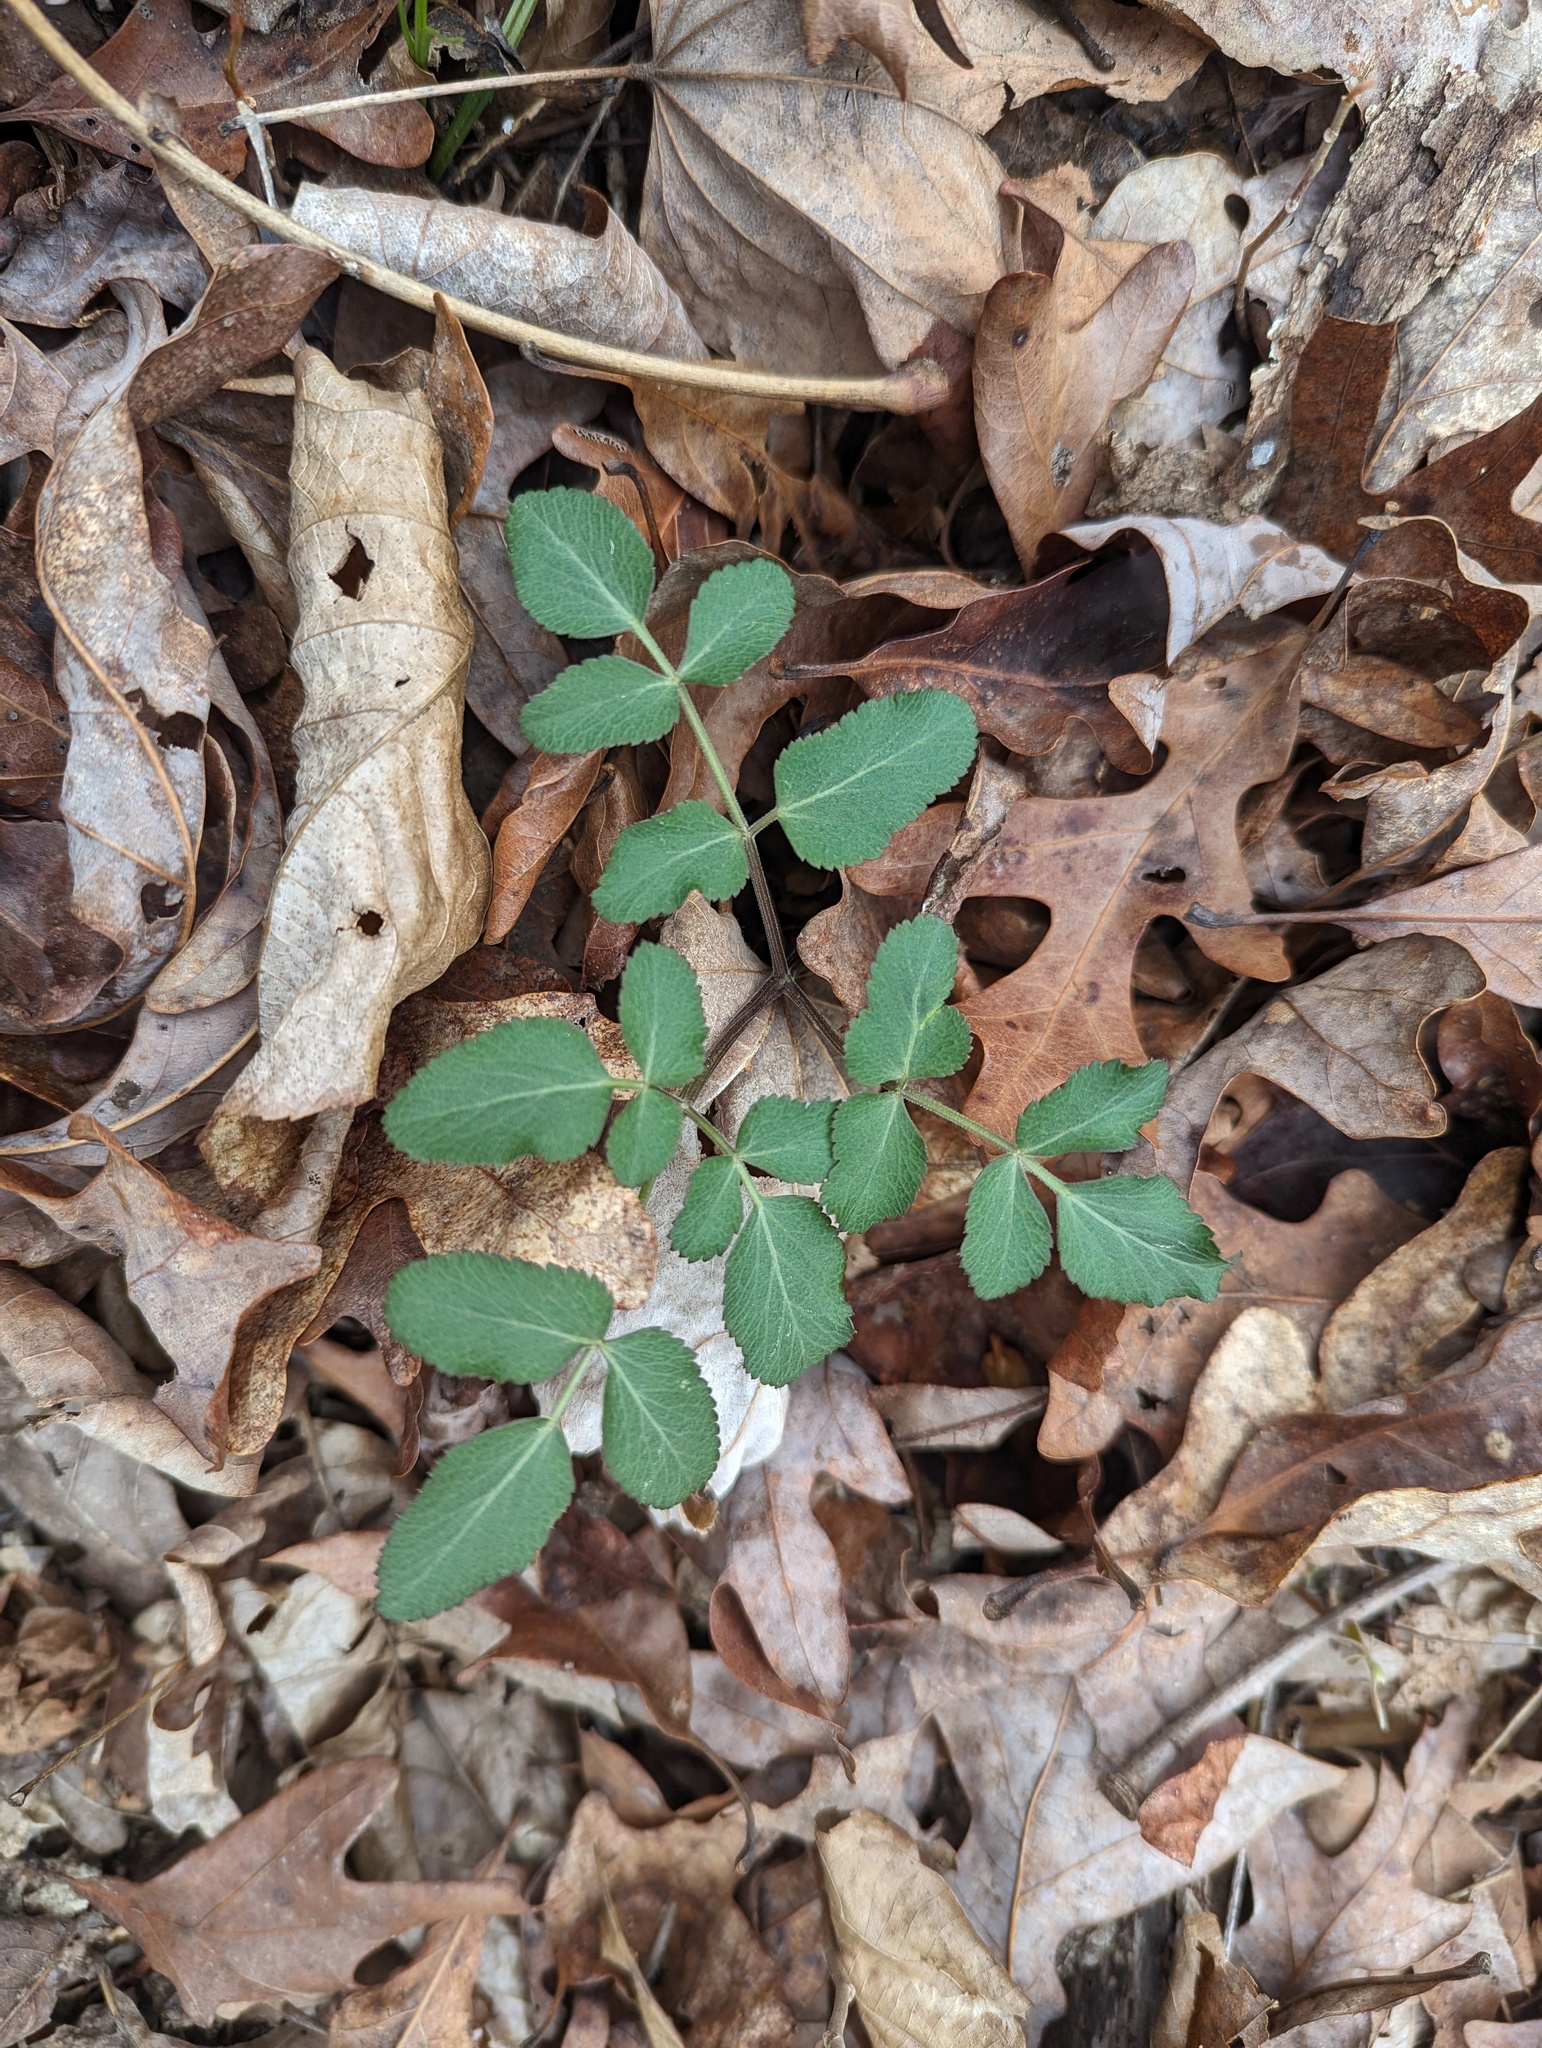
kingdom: Plantae
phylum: Tracheophyta
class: Magnoliopsida
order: Apiales
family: Apiaceae
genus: Angelica
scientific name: Angelica venenosa
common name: Hairy angelica
